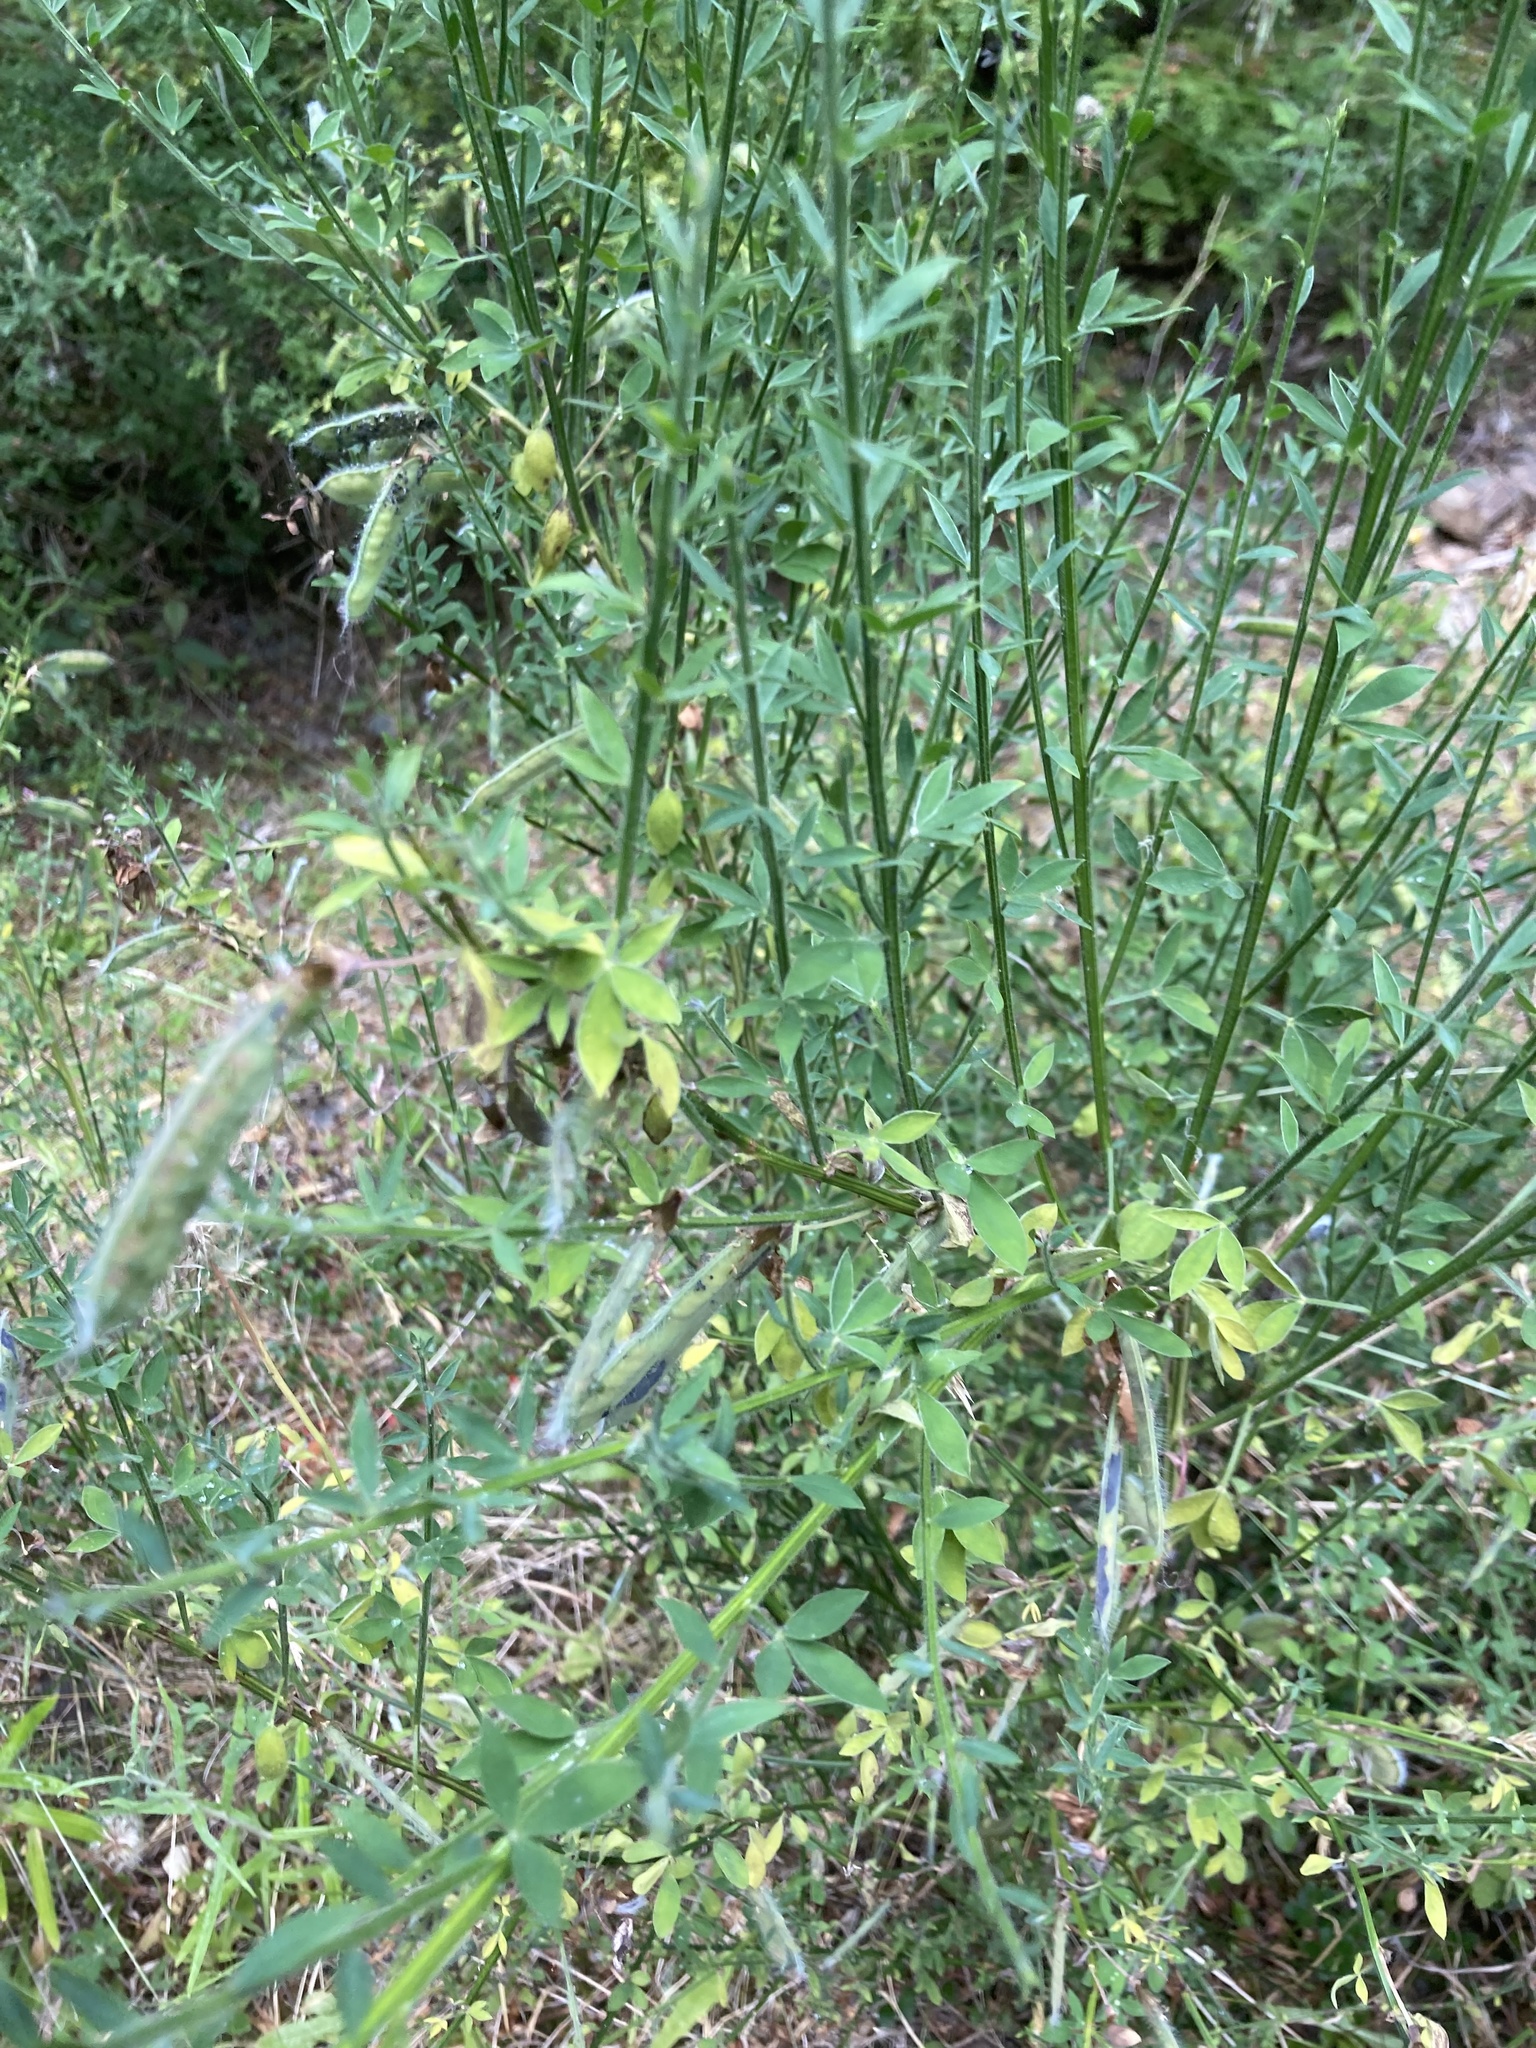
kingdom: Plantae
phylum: Tracheophyta
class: Magnoliopsida
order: Fabales
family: Fabaceae
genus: Cytisus
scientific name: Cytisus scoparius
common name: Scotch broom
